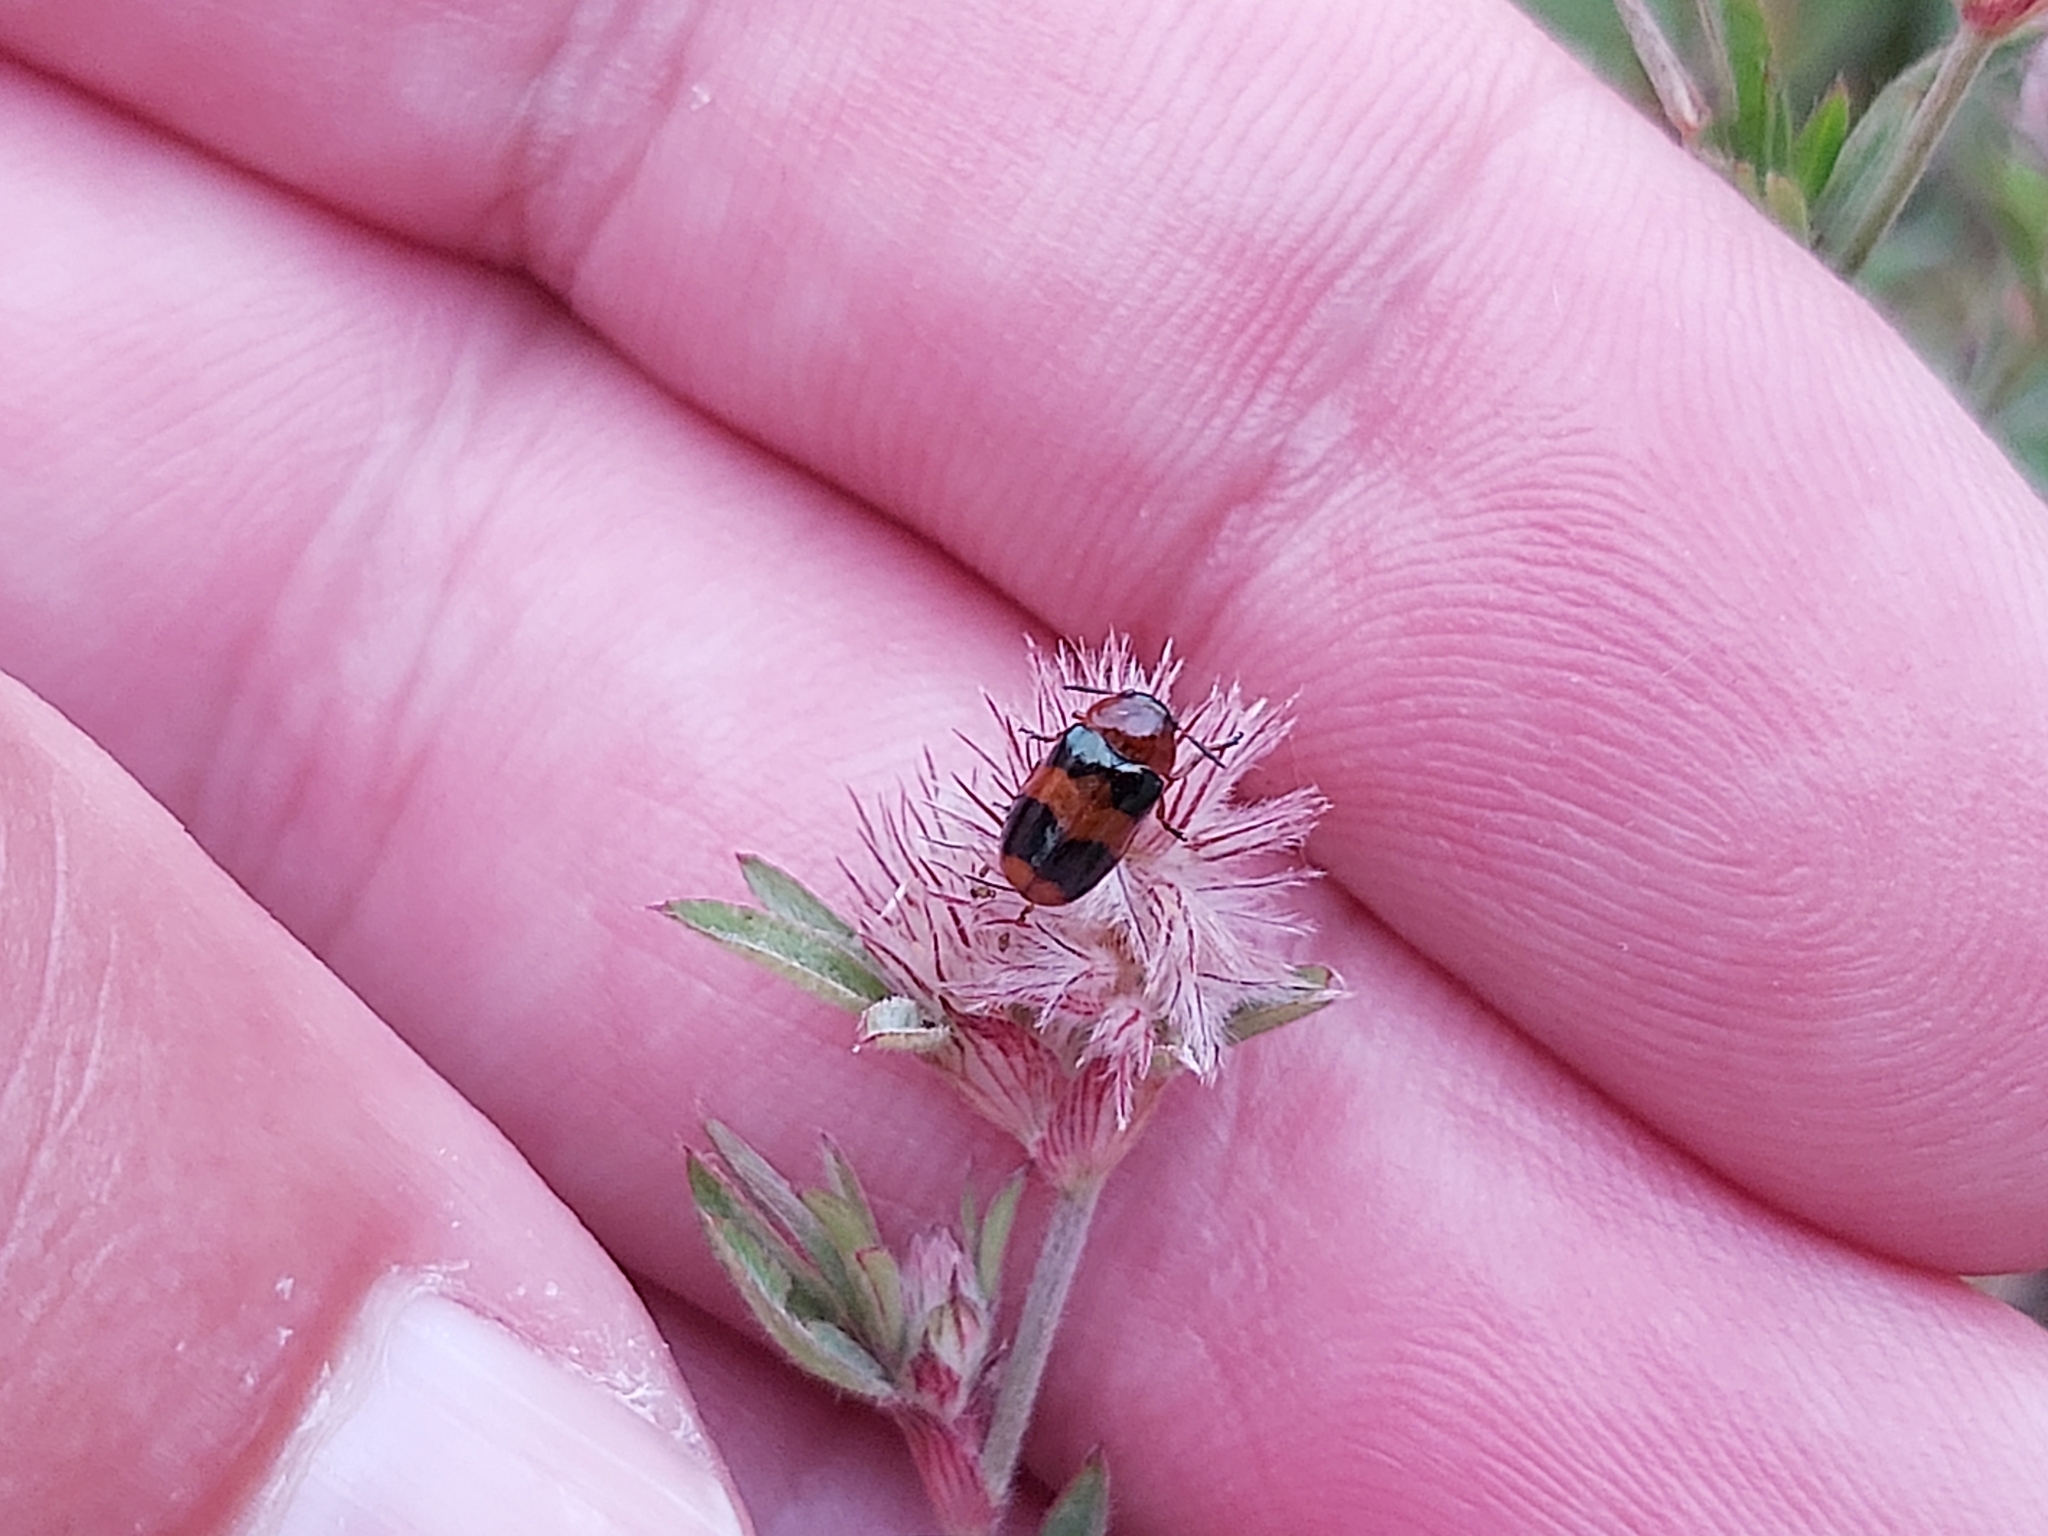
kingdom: Animalia
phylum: Arthropoda
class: Insecta
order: Coleoptera
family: Chrysomelidae
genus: Coptocephala
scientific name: Coptocephala unifasciata
